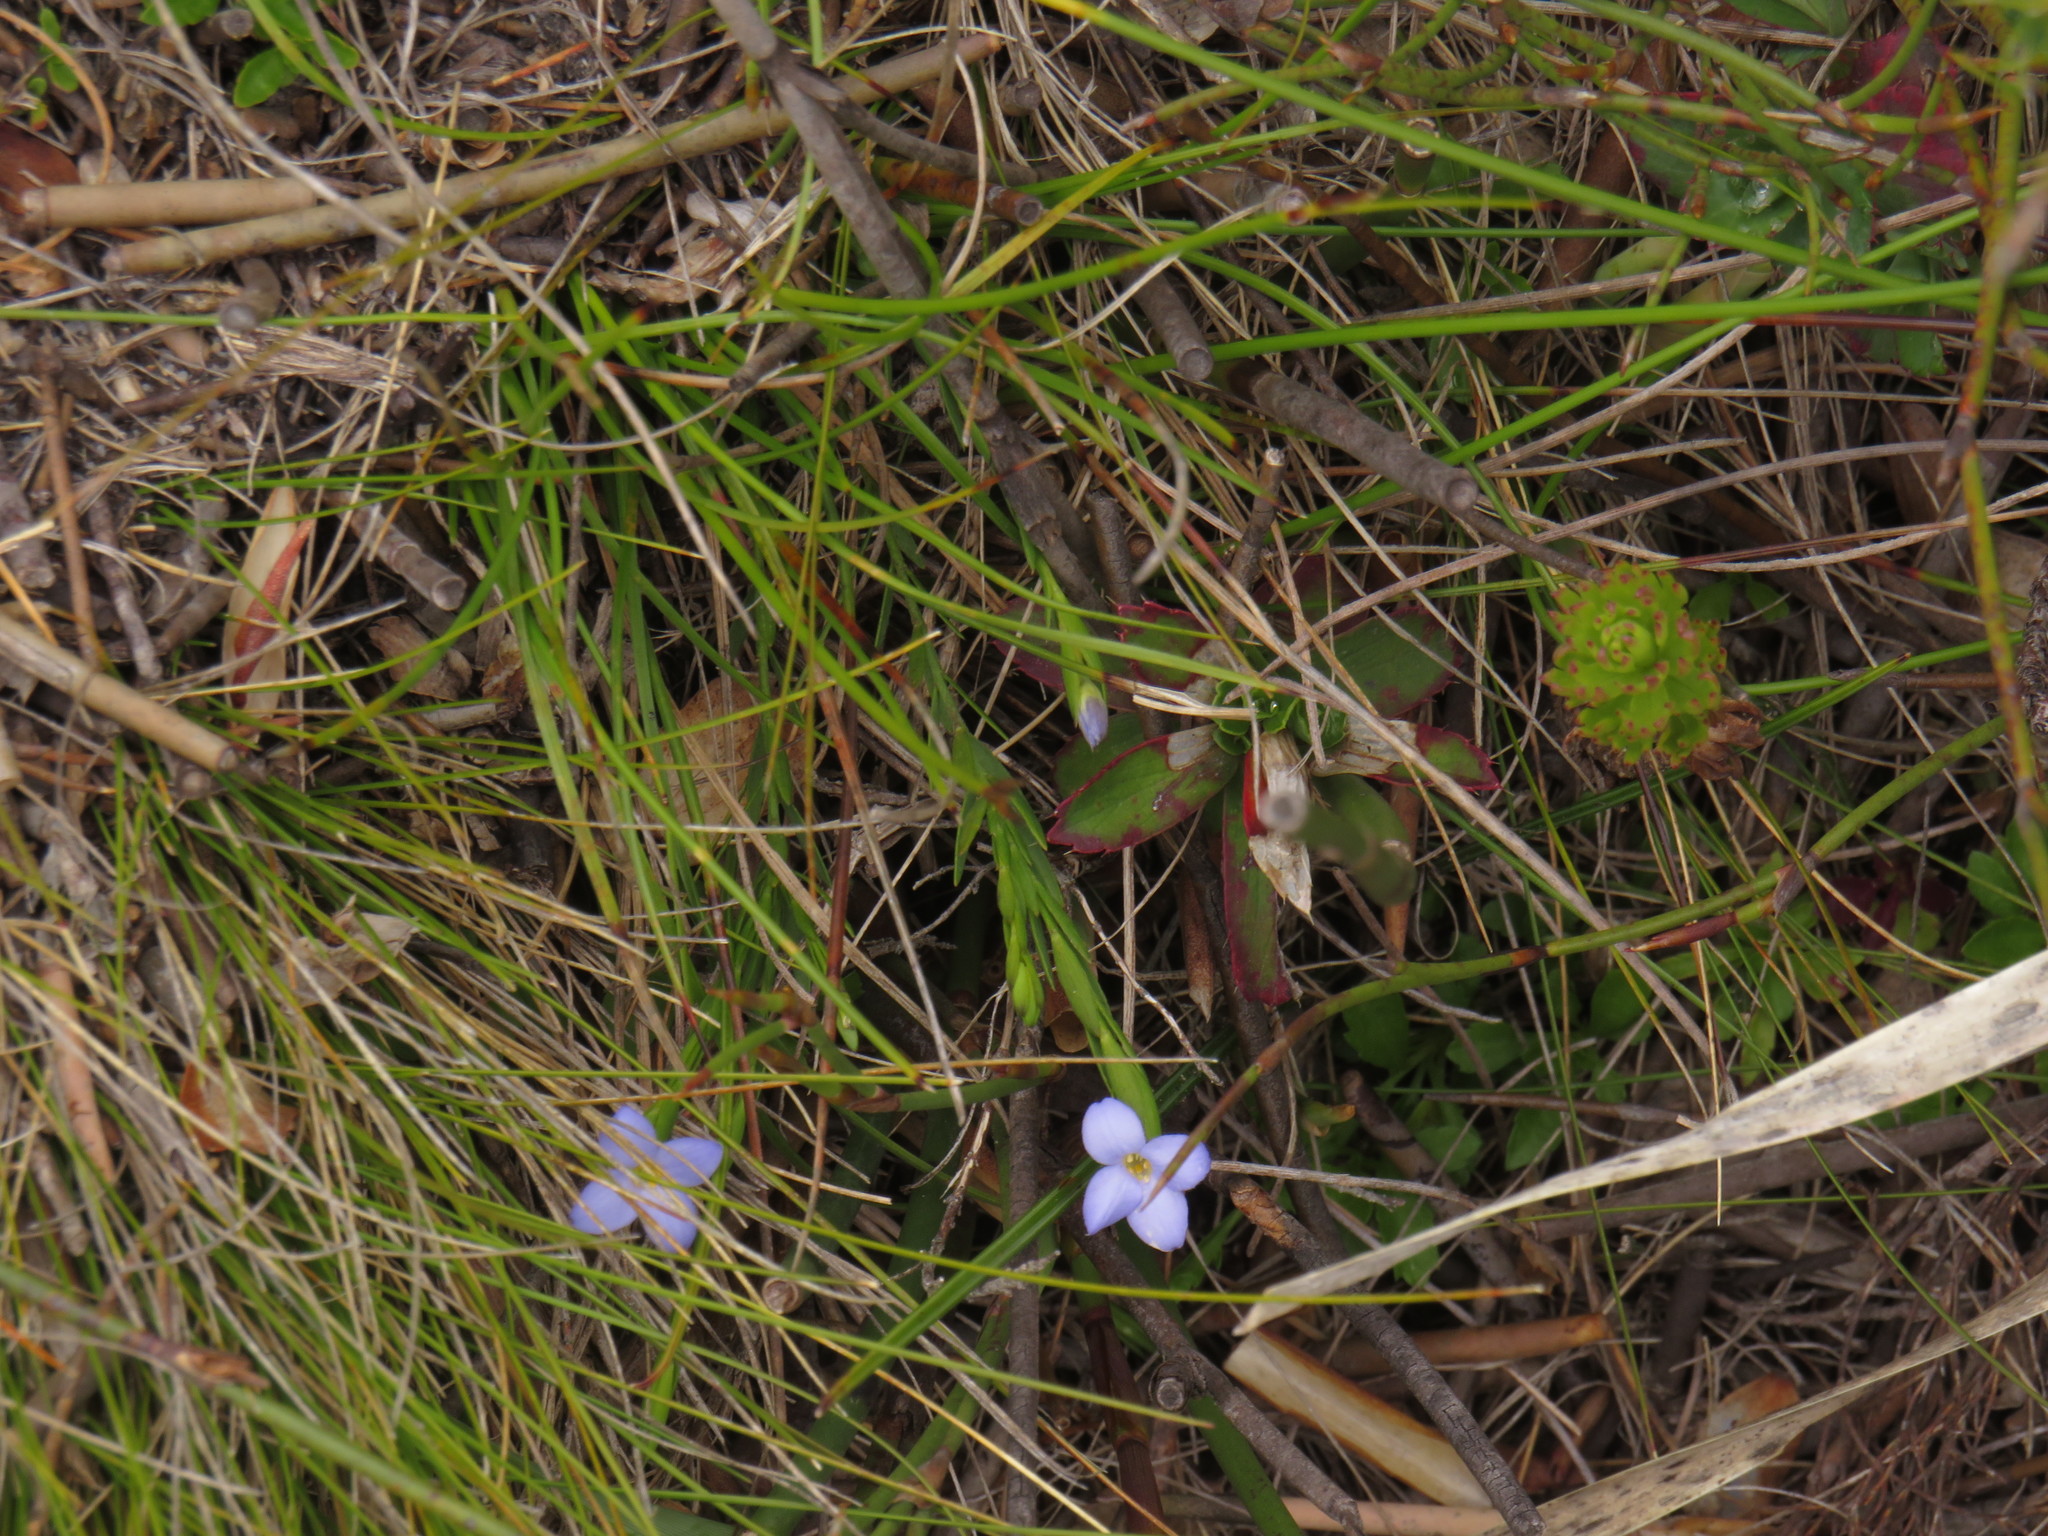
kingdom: Plantae
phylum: Tracheophyta
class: Magnoliopsida
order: Malvales
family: Thymelaeaceae
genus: Gnidia
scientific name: Gnidia linoides
